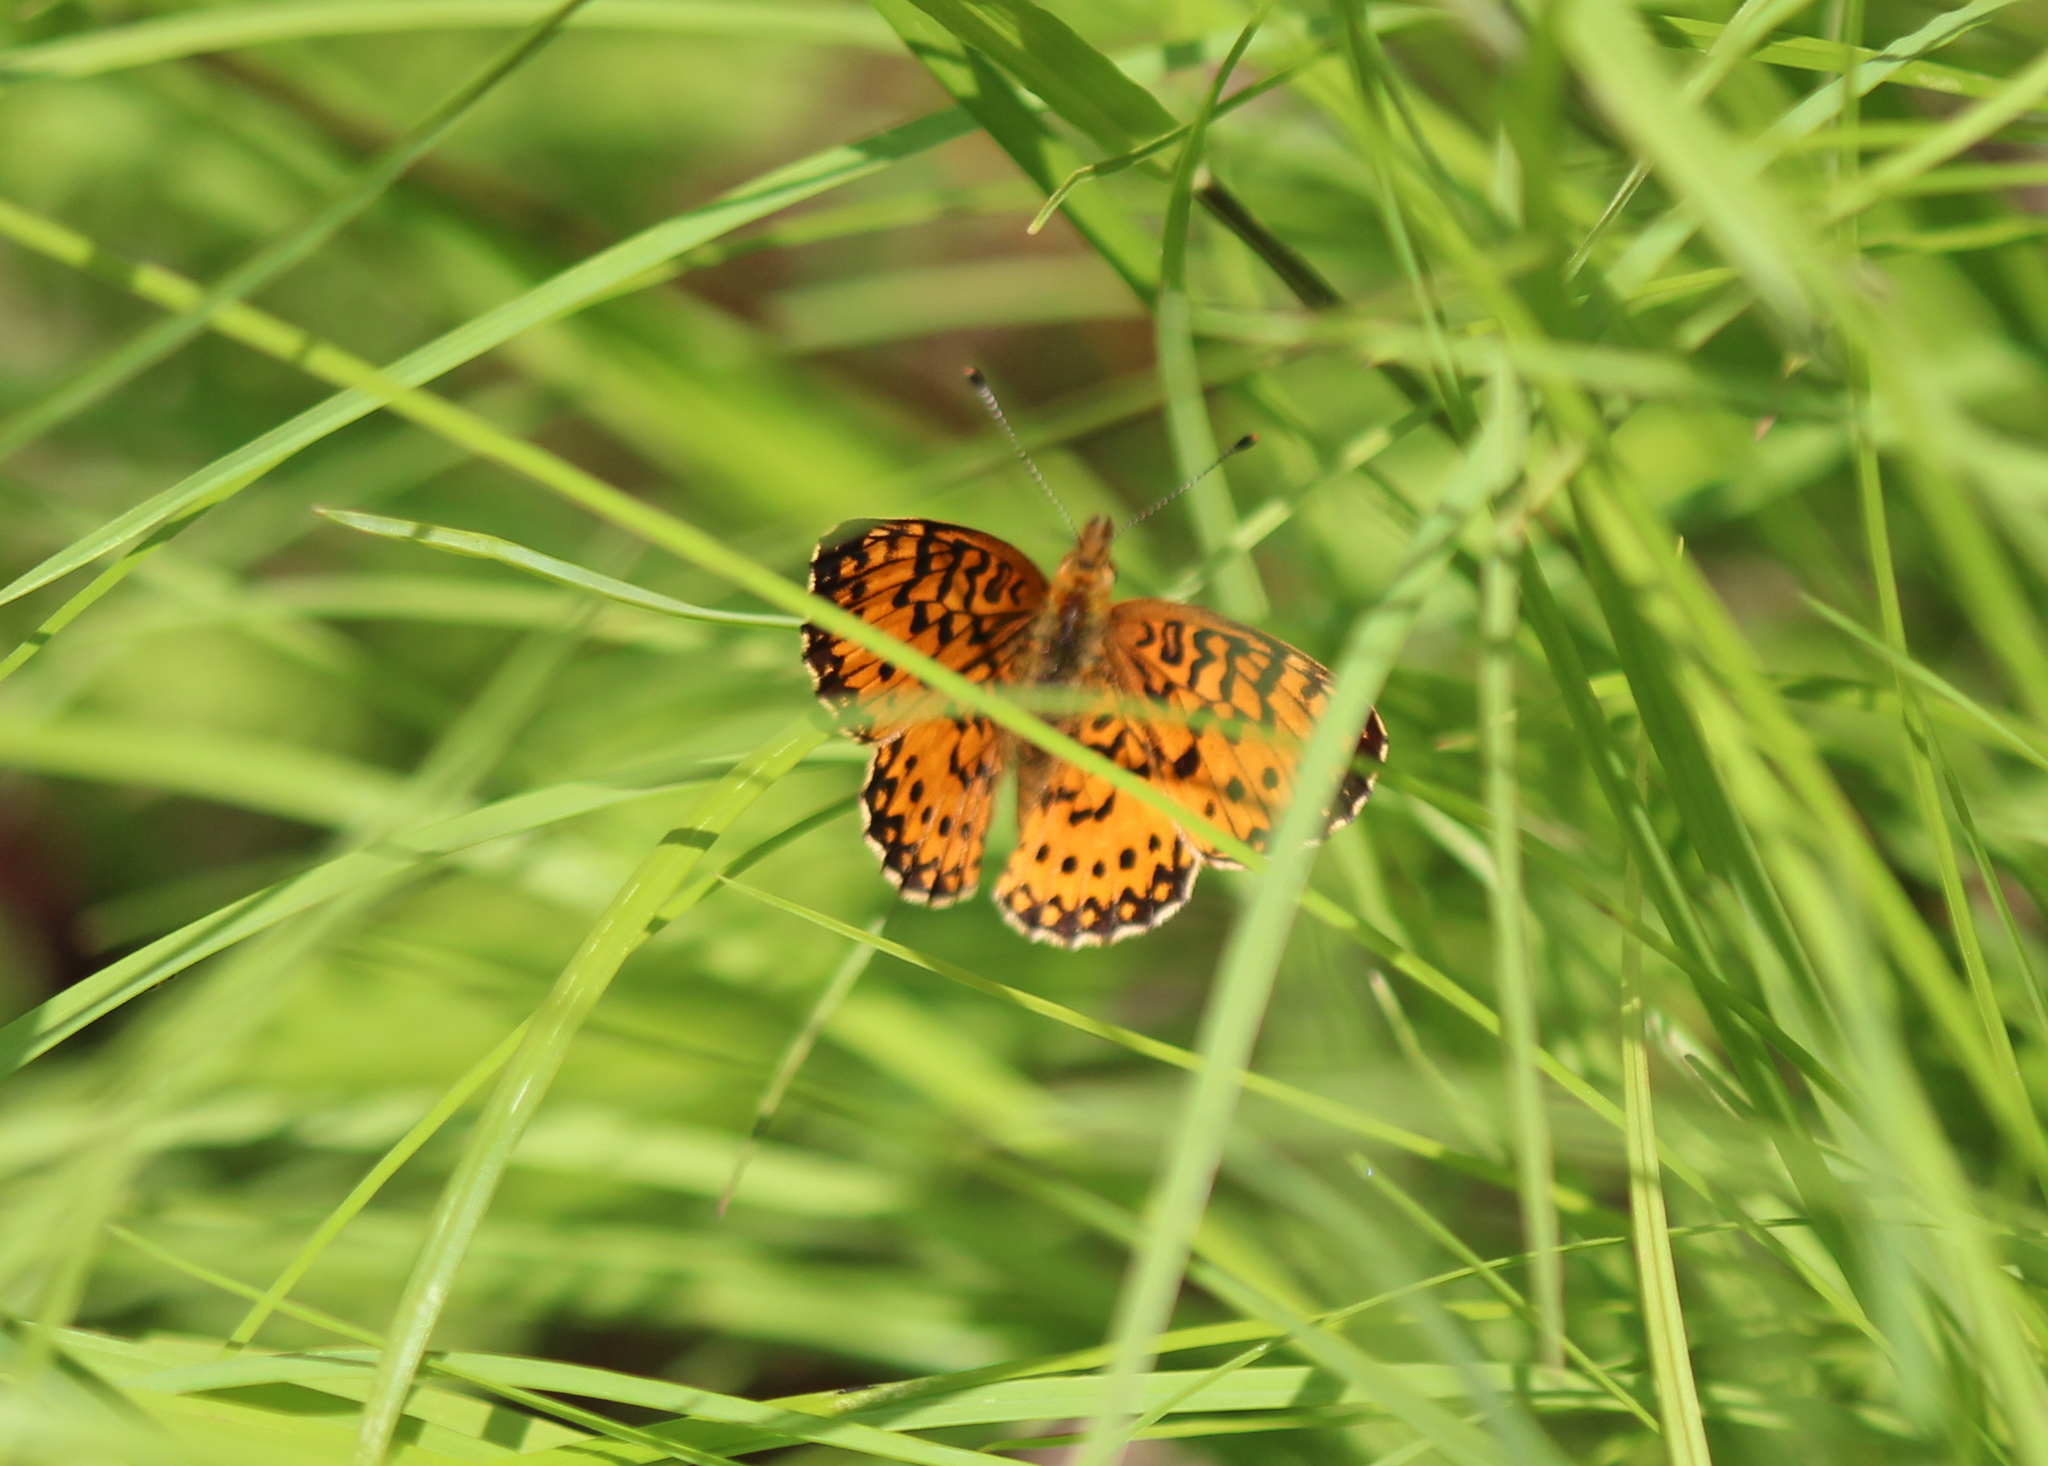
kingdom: Animalia
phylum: Arthropoda
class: Insecta
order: Lepidoptera
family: Nymphalidae
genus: Boloria
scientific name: Boloria
